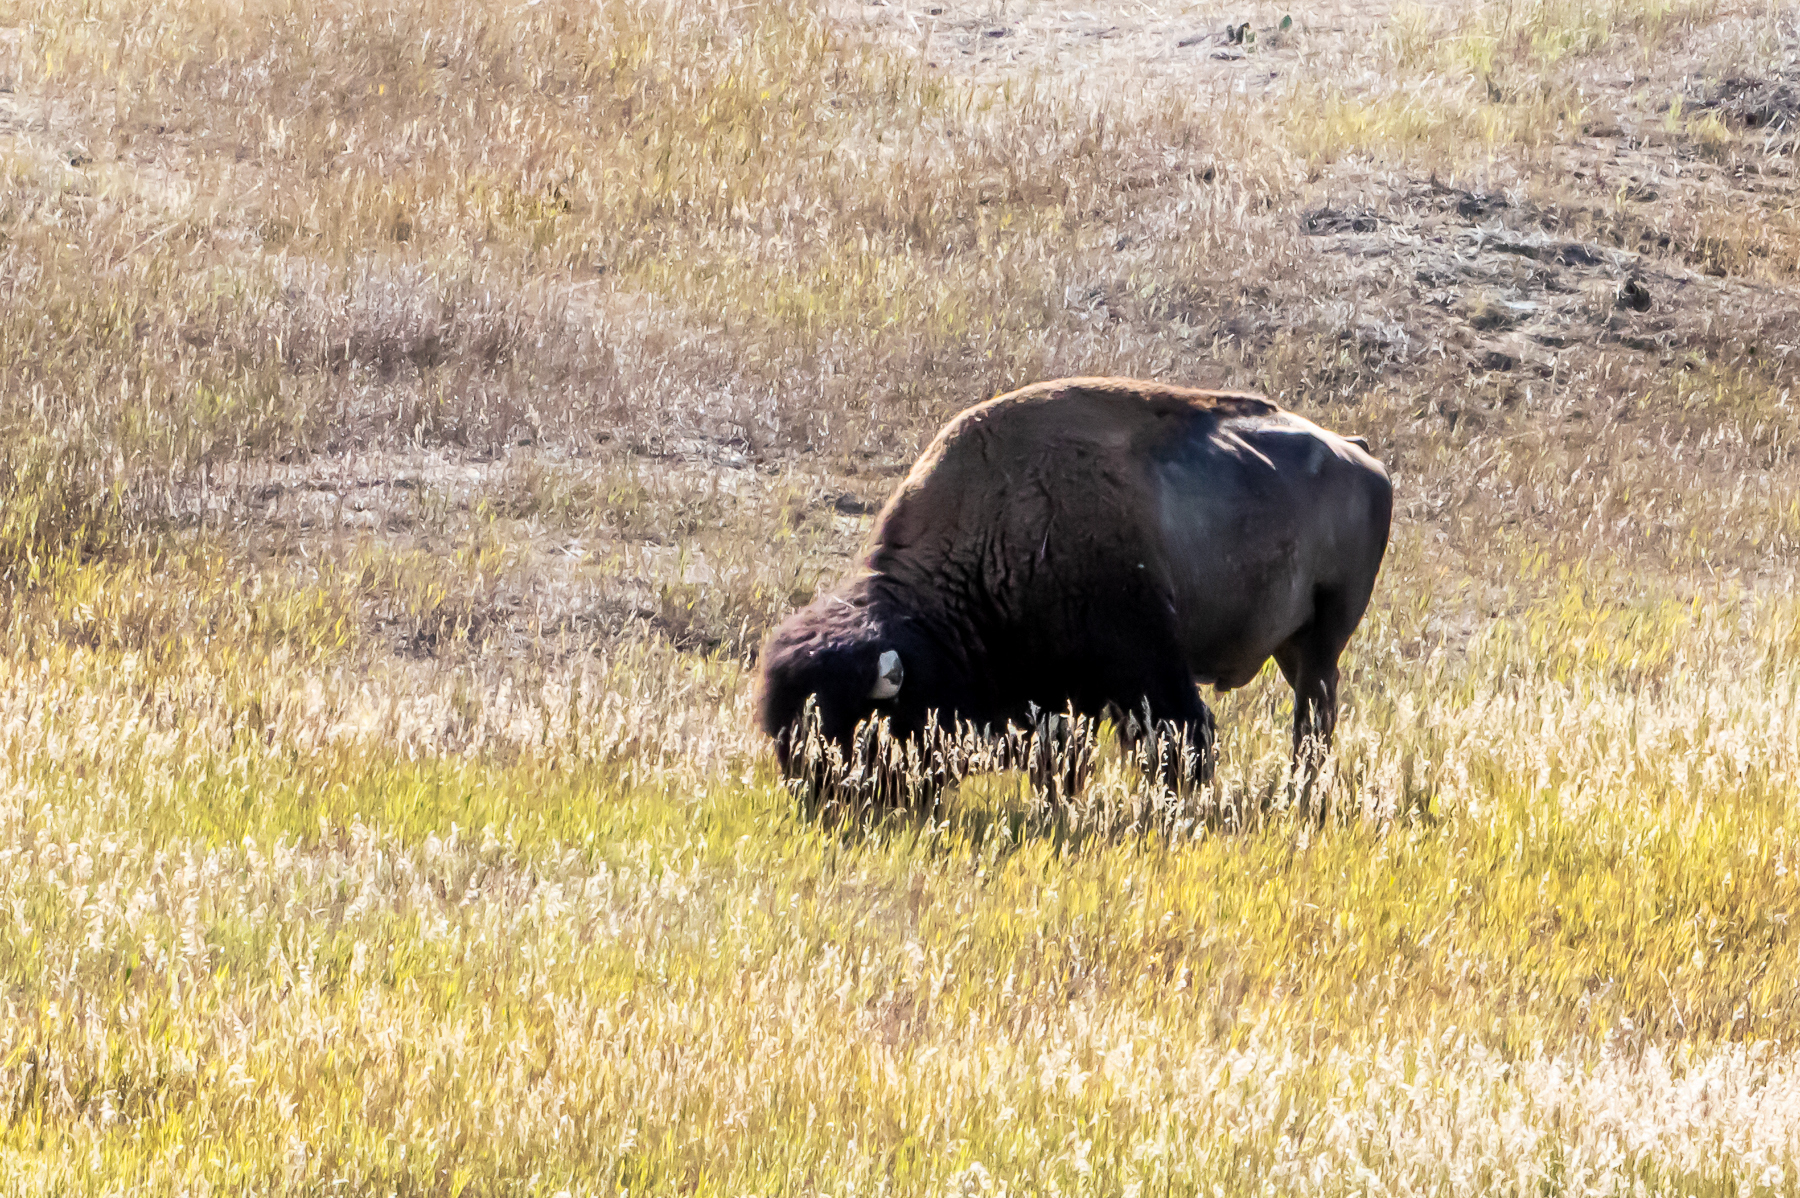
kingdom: Animalia
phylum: Chordata
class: Mammalia
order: Artiodactyla
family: Bovidae
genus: Bison
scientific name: Bison bison
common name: American bison
